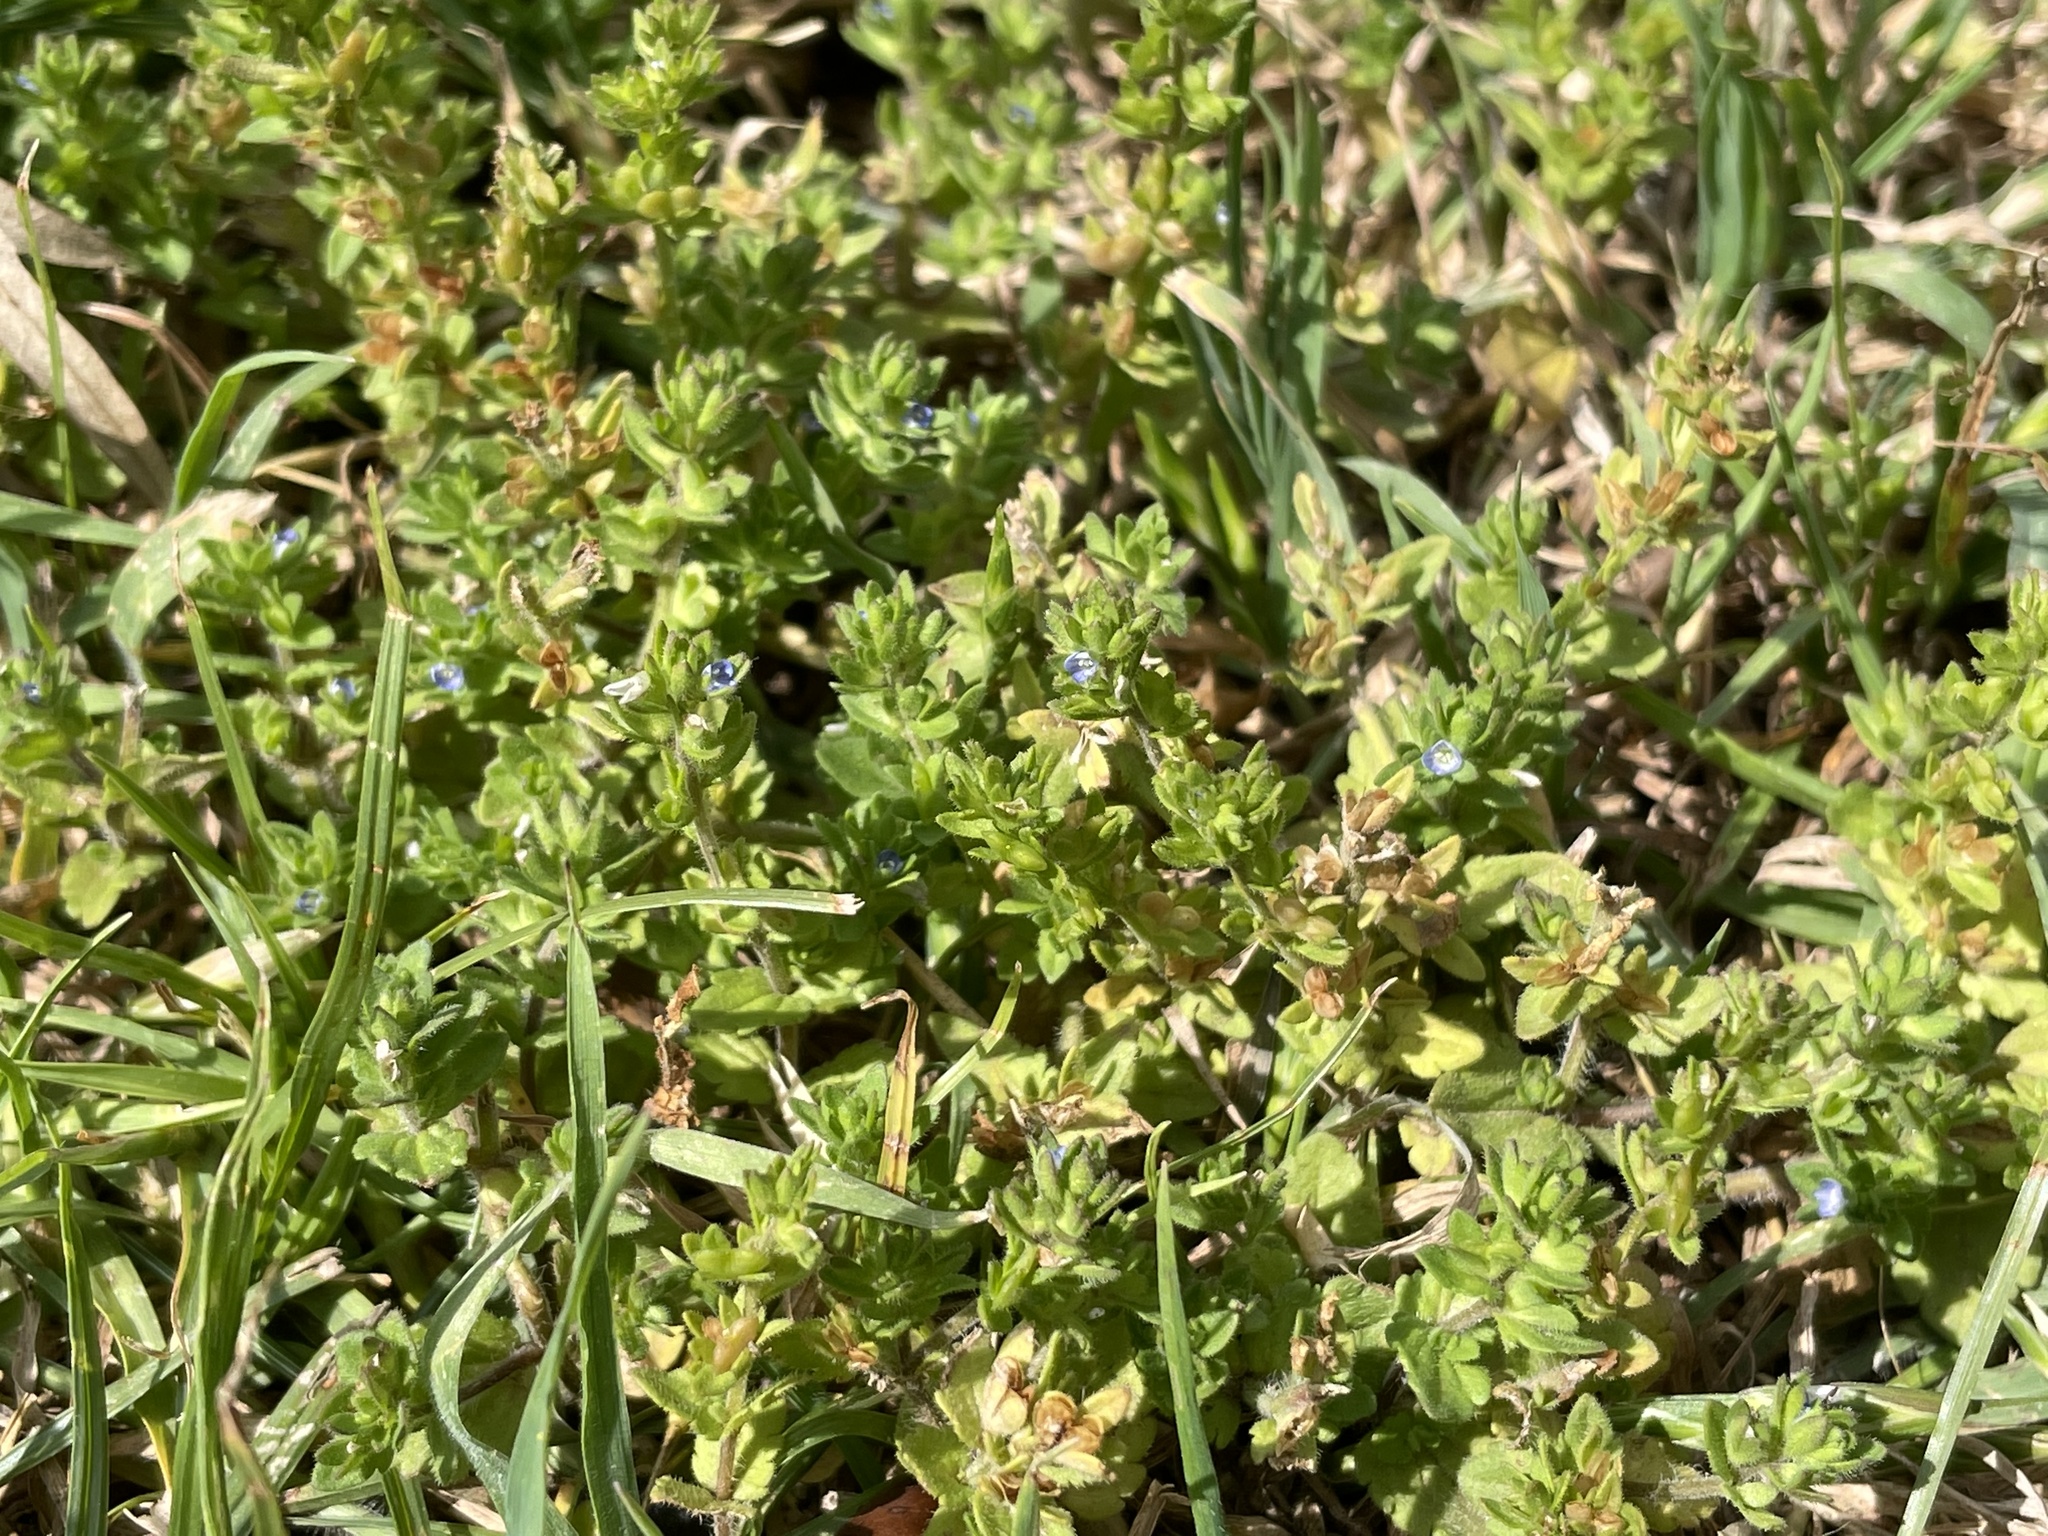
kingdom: Plantae
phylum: Tracheophyta
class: Magnoliopsida
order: Lamiales
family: Plantaginaceae
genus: Veronica
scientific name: Veronica arvensis
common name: Corn speedwell
